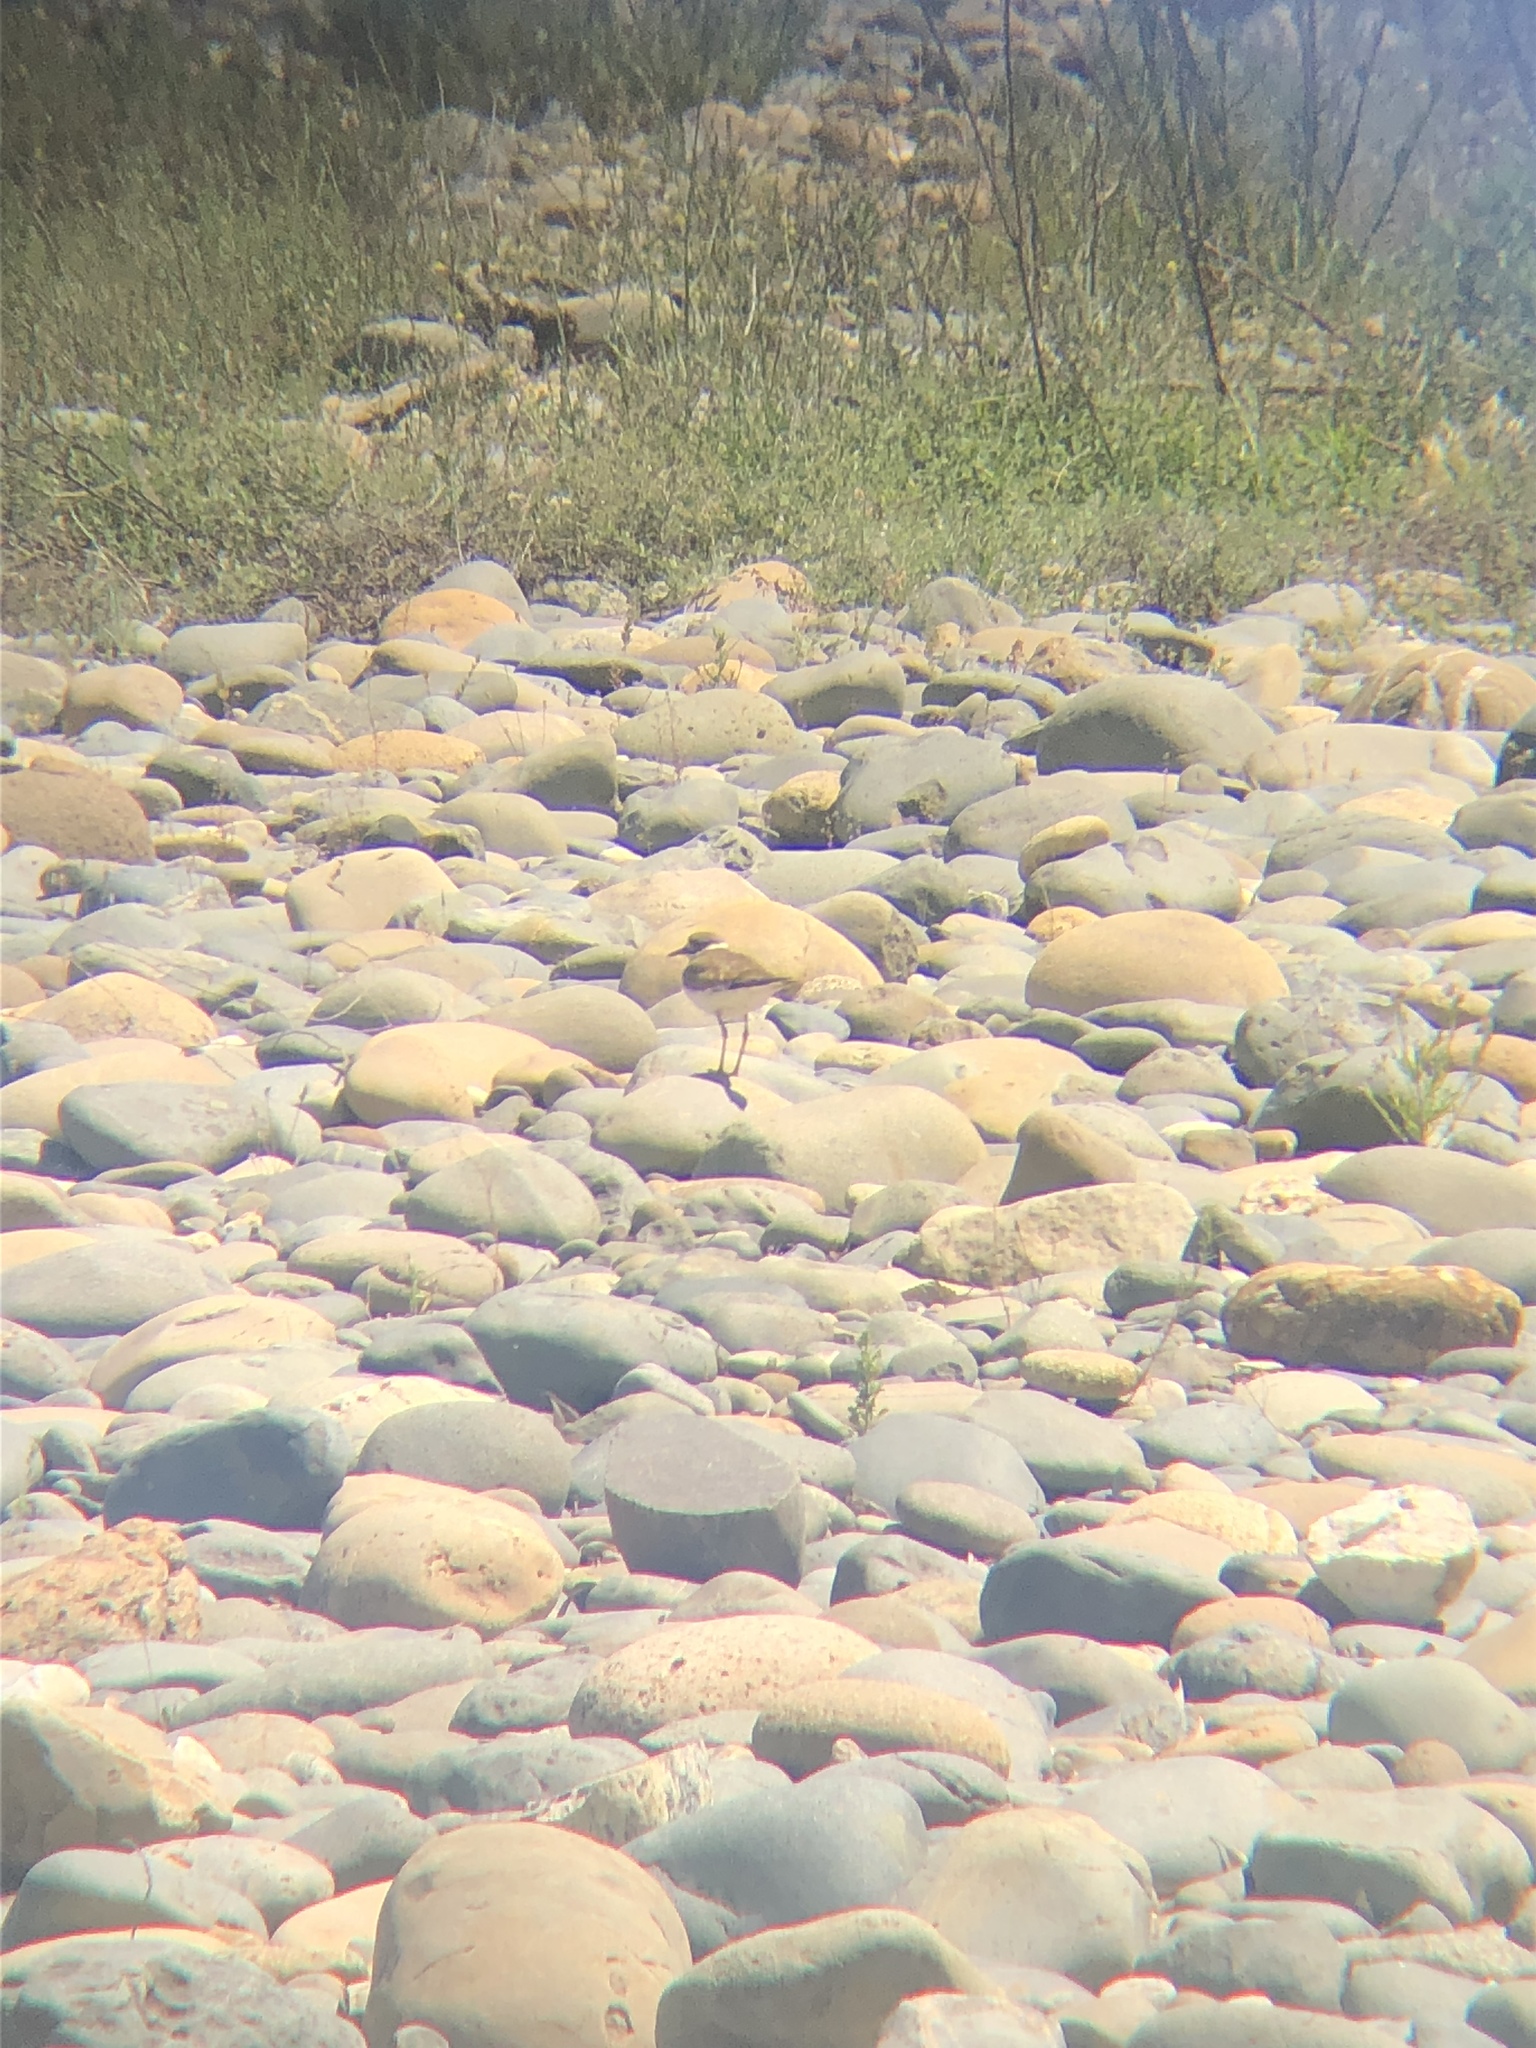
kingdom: Animalia
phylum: Chordata
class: Aves
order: Charadriiformes
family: Charadriidae
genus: Charadrius
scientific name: Charadrius vociferus
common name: Killdeer
